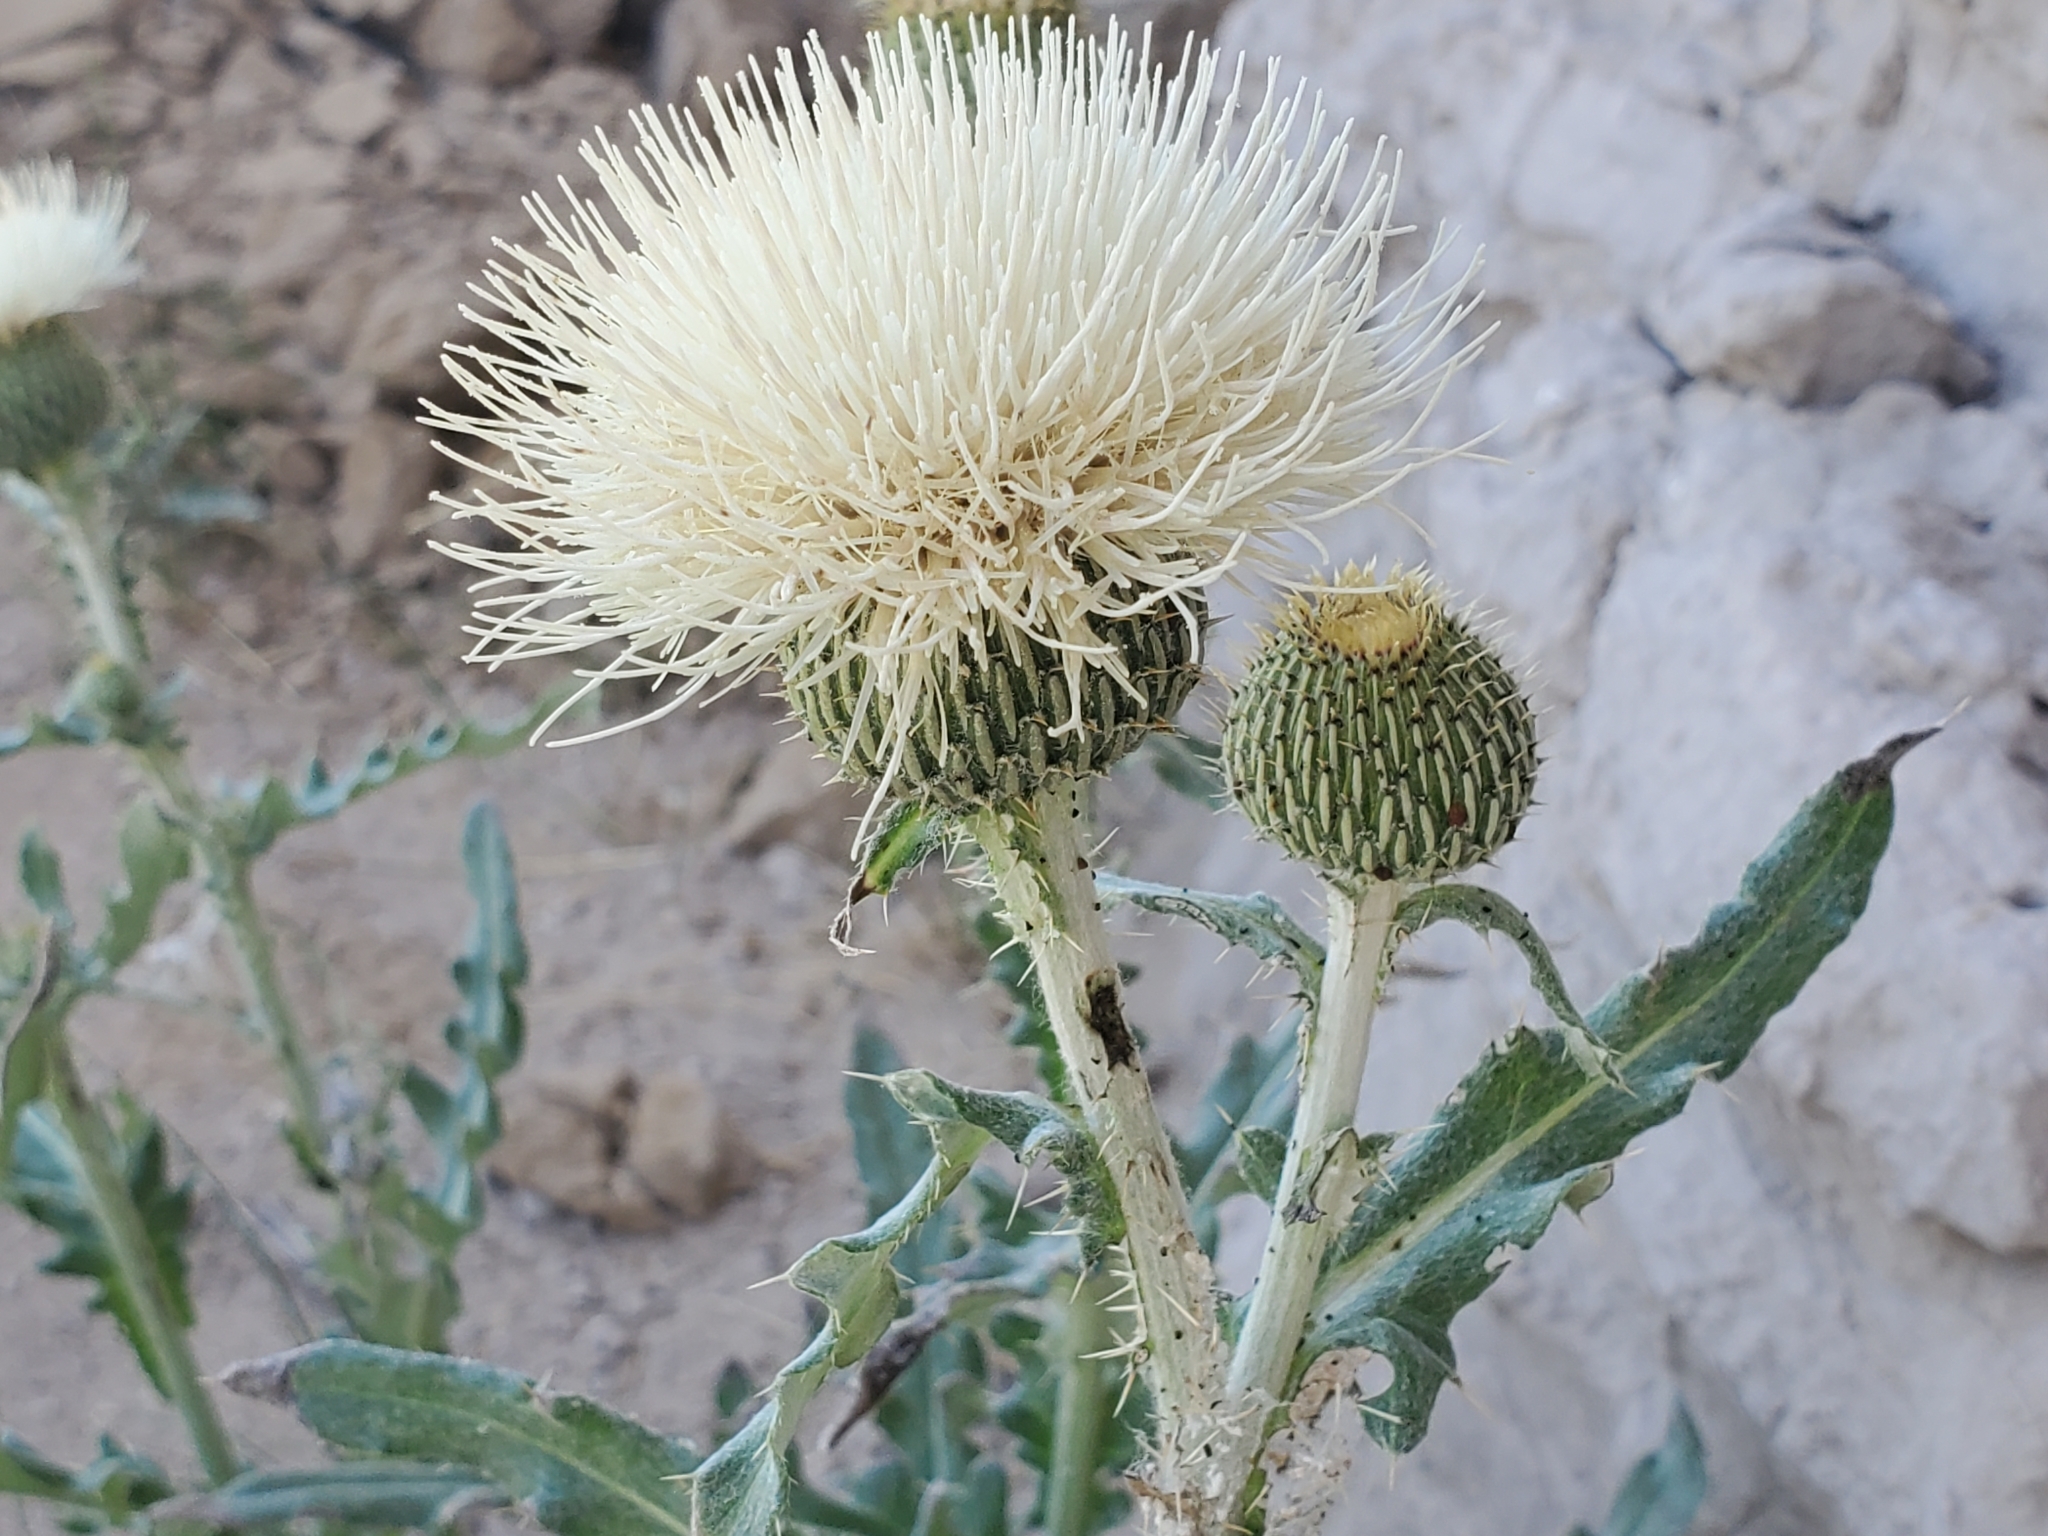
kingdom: Plantae
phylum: Tracheophyta
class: Magnoliopsida
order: Asterales
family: Asteraceae
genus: Cirsium
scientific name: Cirsium canescens
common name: Prairie thistle
